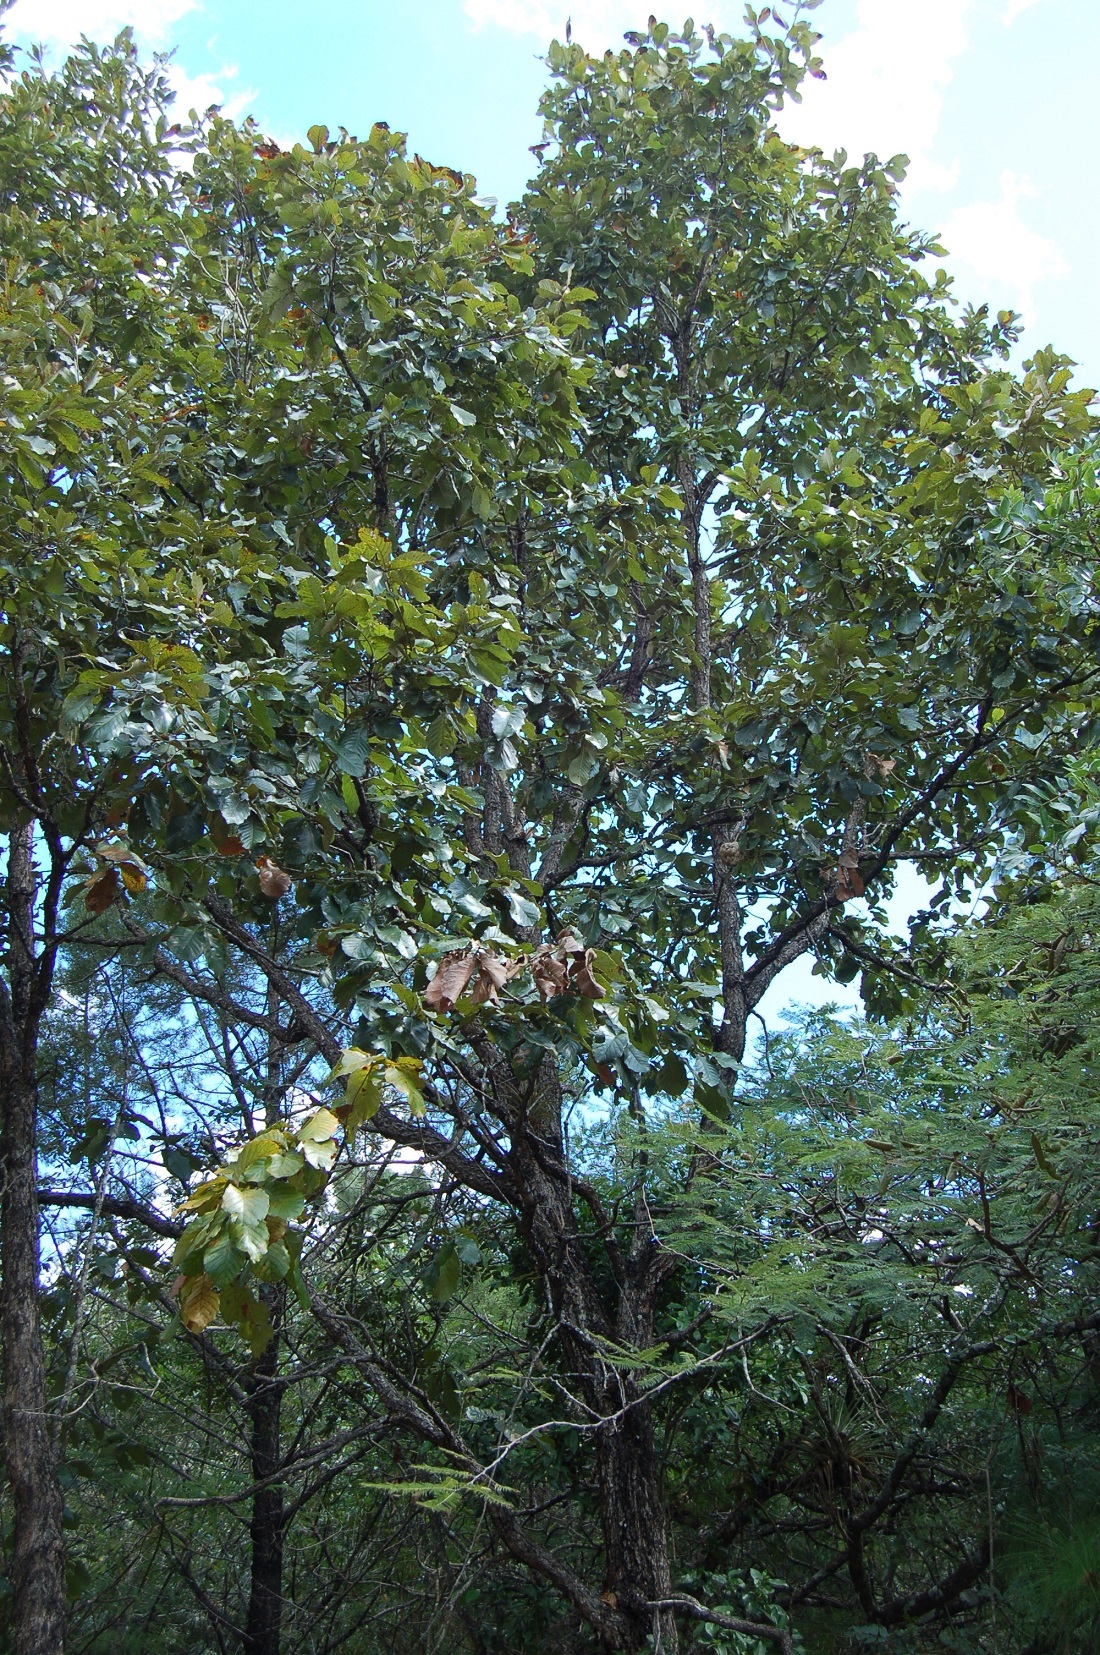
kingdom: Plantae
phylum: Tracheophyta
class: Magnoliopsida
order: Fagales
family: Fagaceae
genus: Quercus
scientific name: Quercus segoviensis
